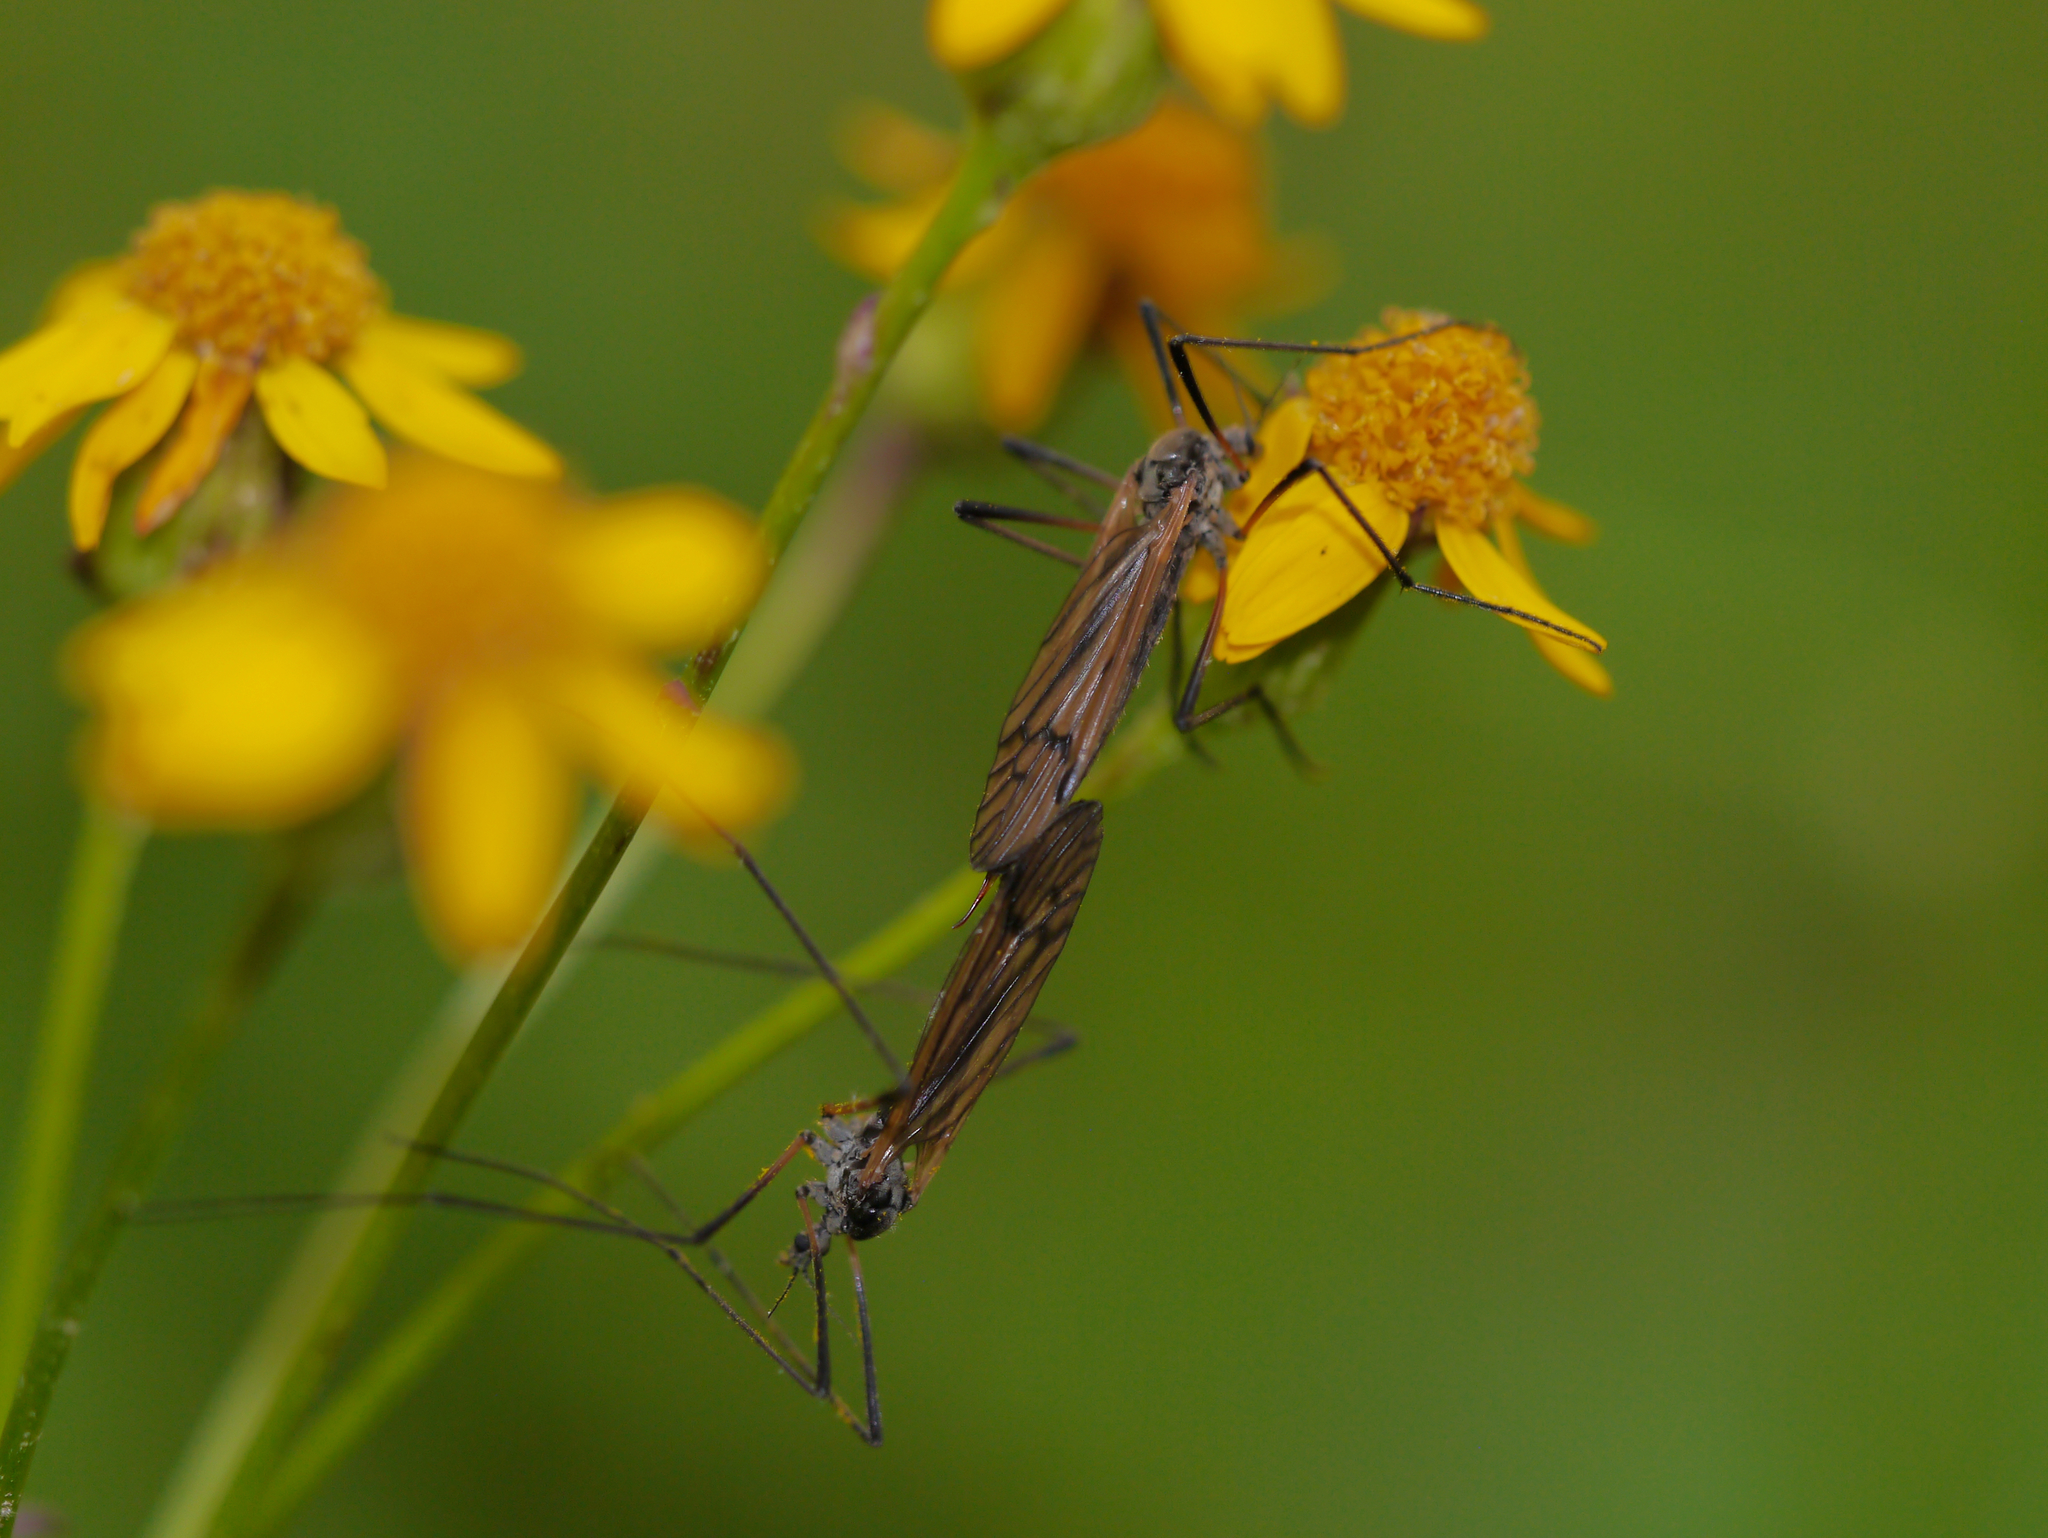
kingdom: Animalia
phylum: Arthropoda
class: Insecta
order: Diptera
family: Limoniidae
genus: Prionolabis
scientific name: Prionolabis rufibasis
